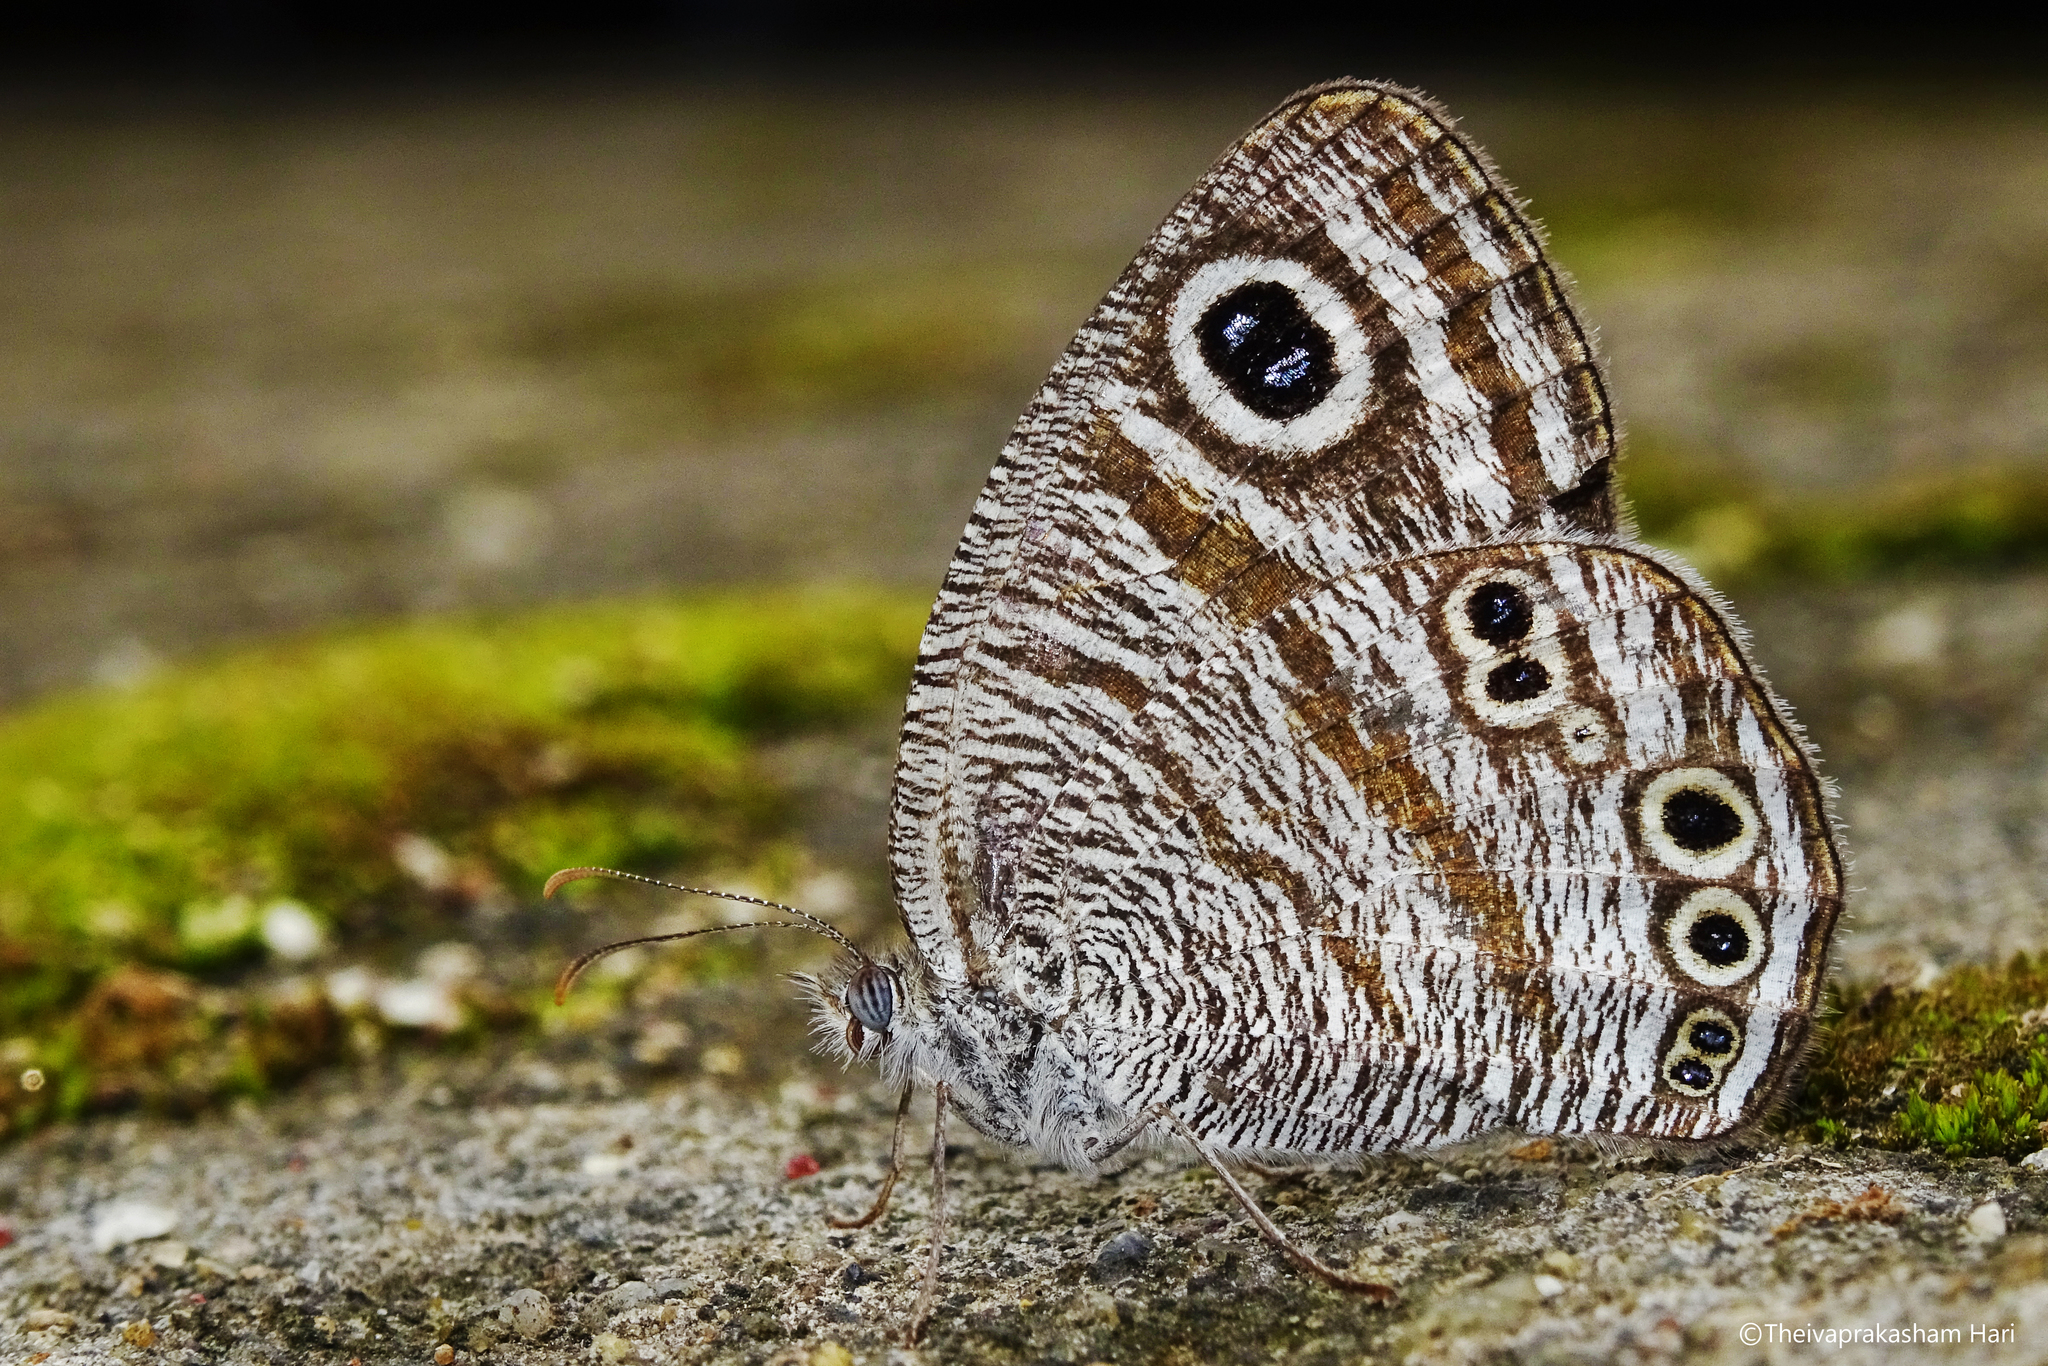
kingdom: Animalia
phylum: Arthropoda
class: Insecta
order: Lepidoptera
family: Nymphalidae
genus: Ypthima
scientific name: Ypthima avanta
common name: Jewel five-ring
